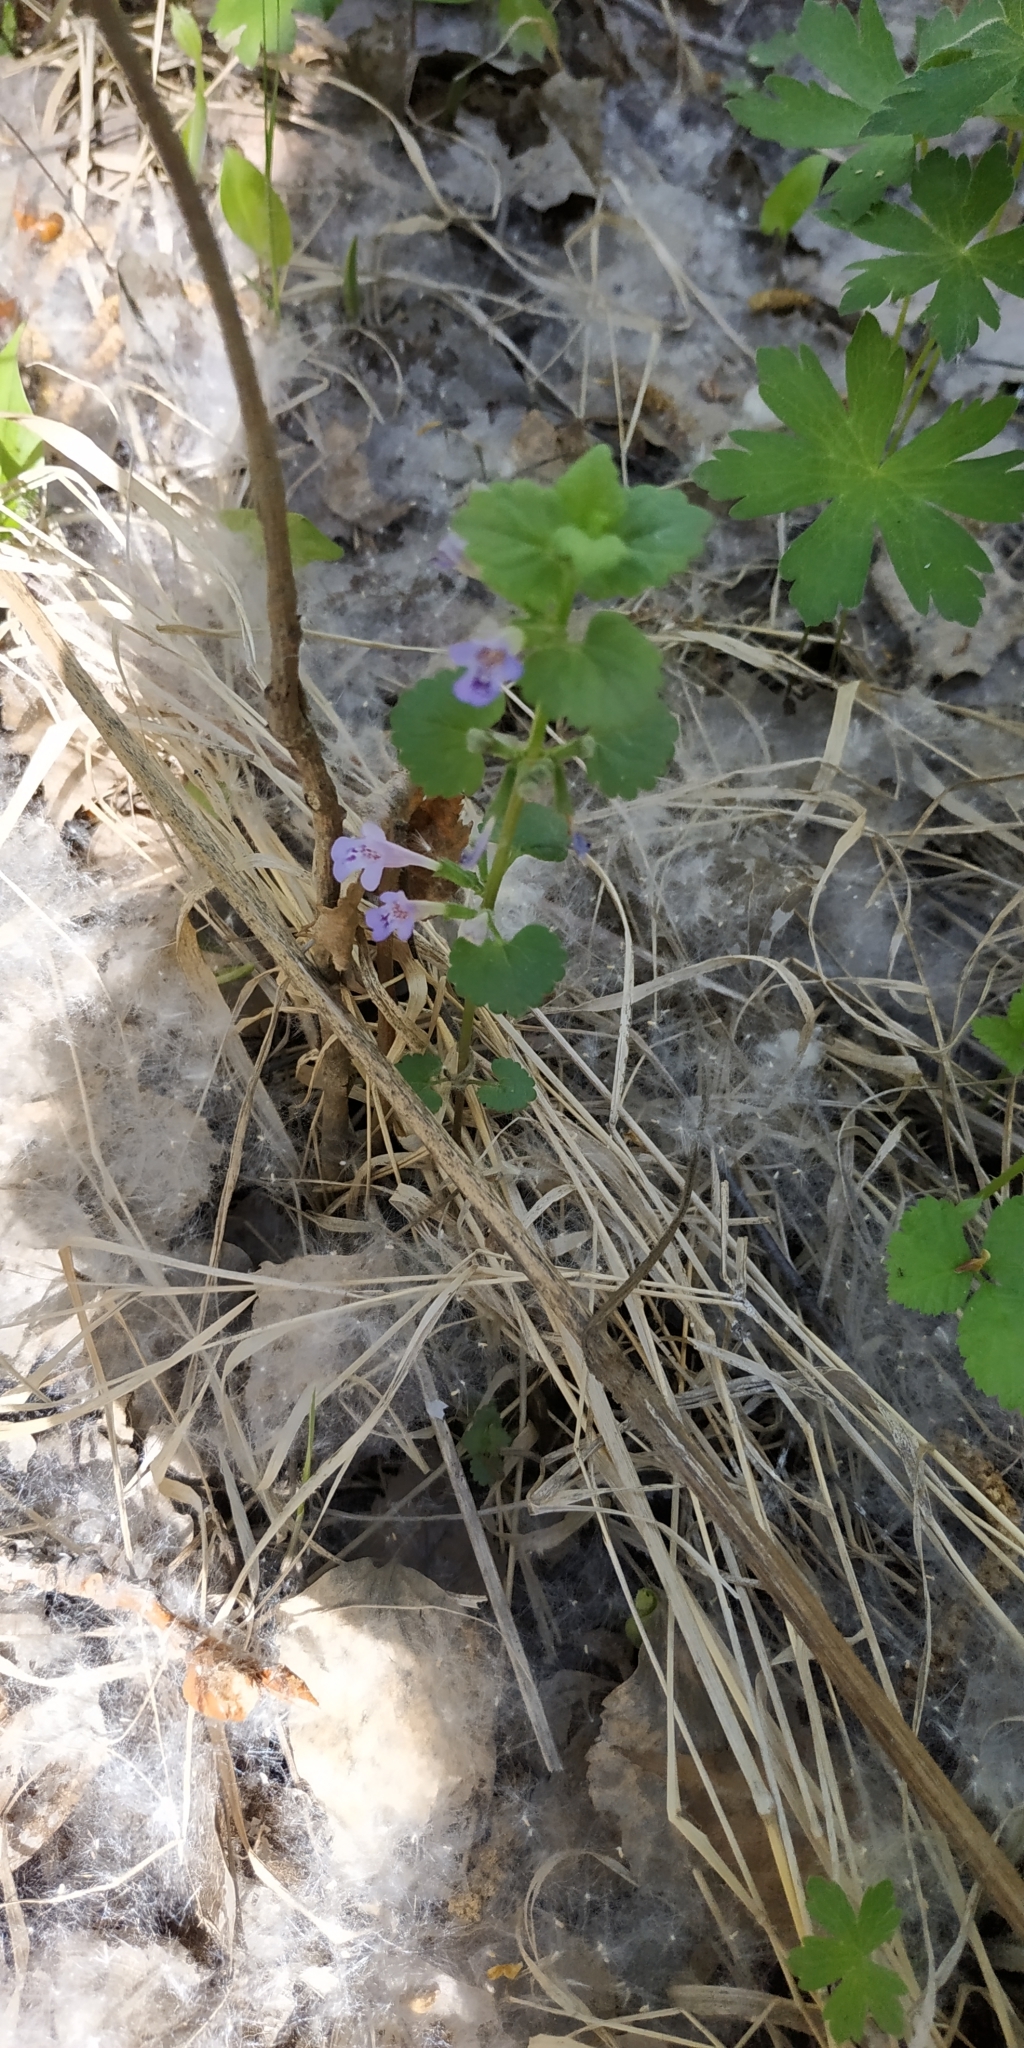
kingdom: Plantae
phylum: Tracheophyta
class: Magnoliopsida
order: Lamiales
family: Lamiaceae
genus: Glechoma
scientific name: Glechoma hederacea
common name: Ground ivy
